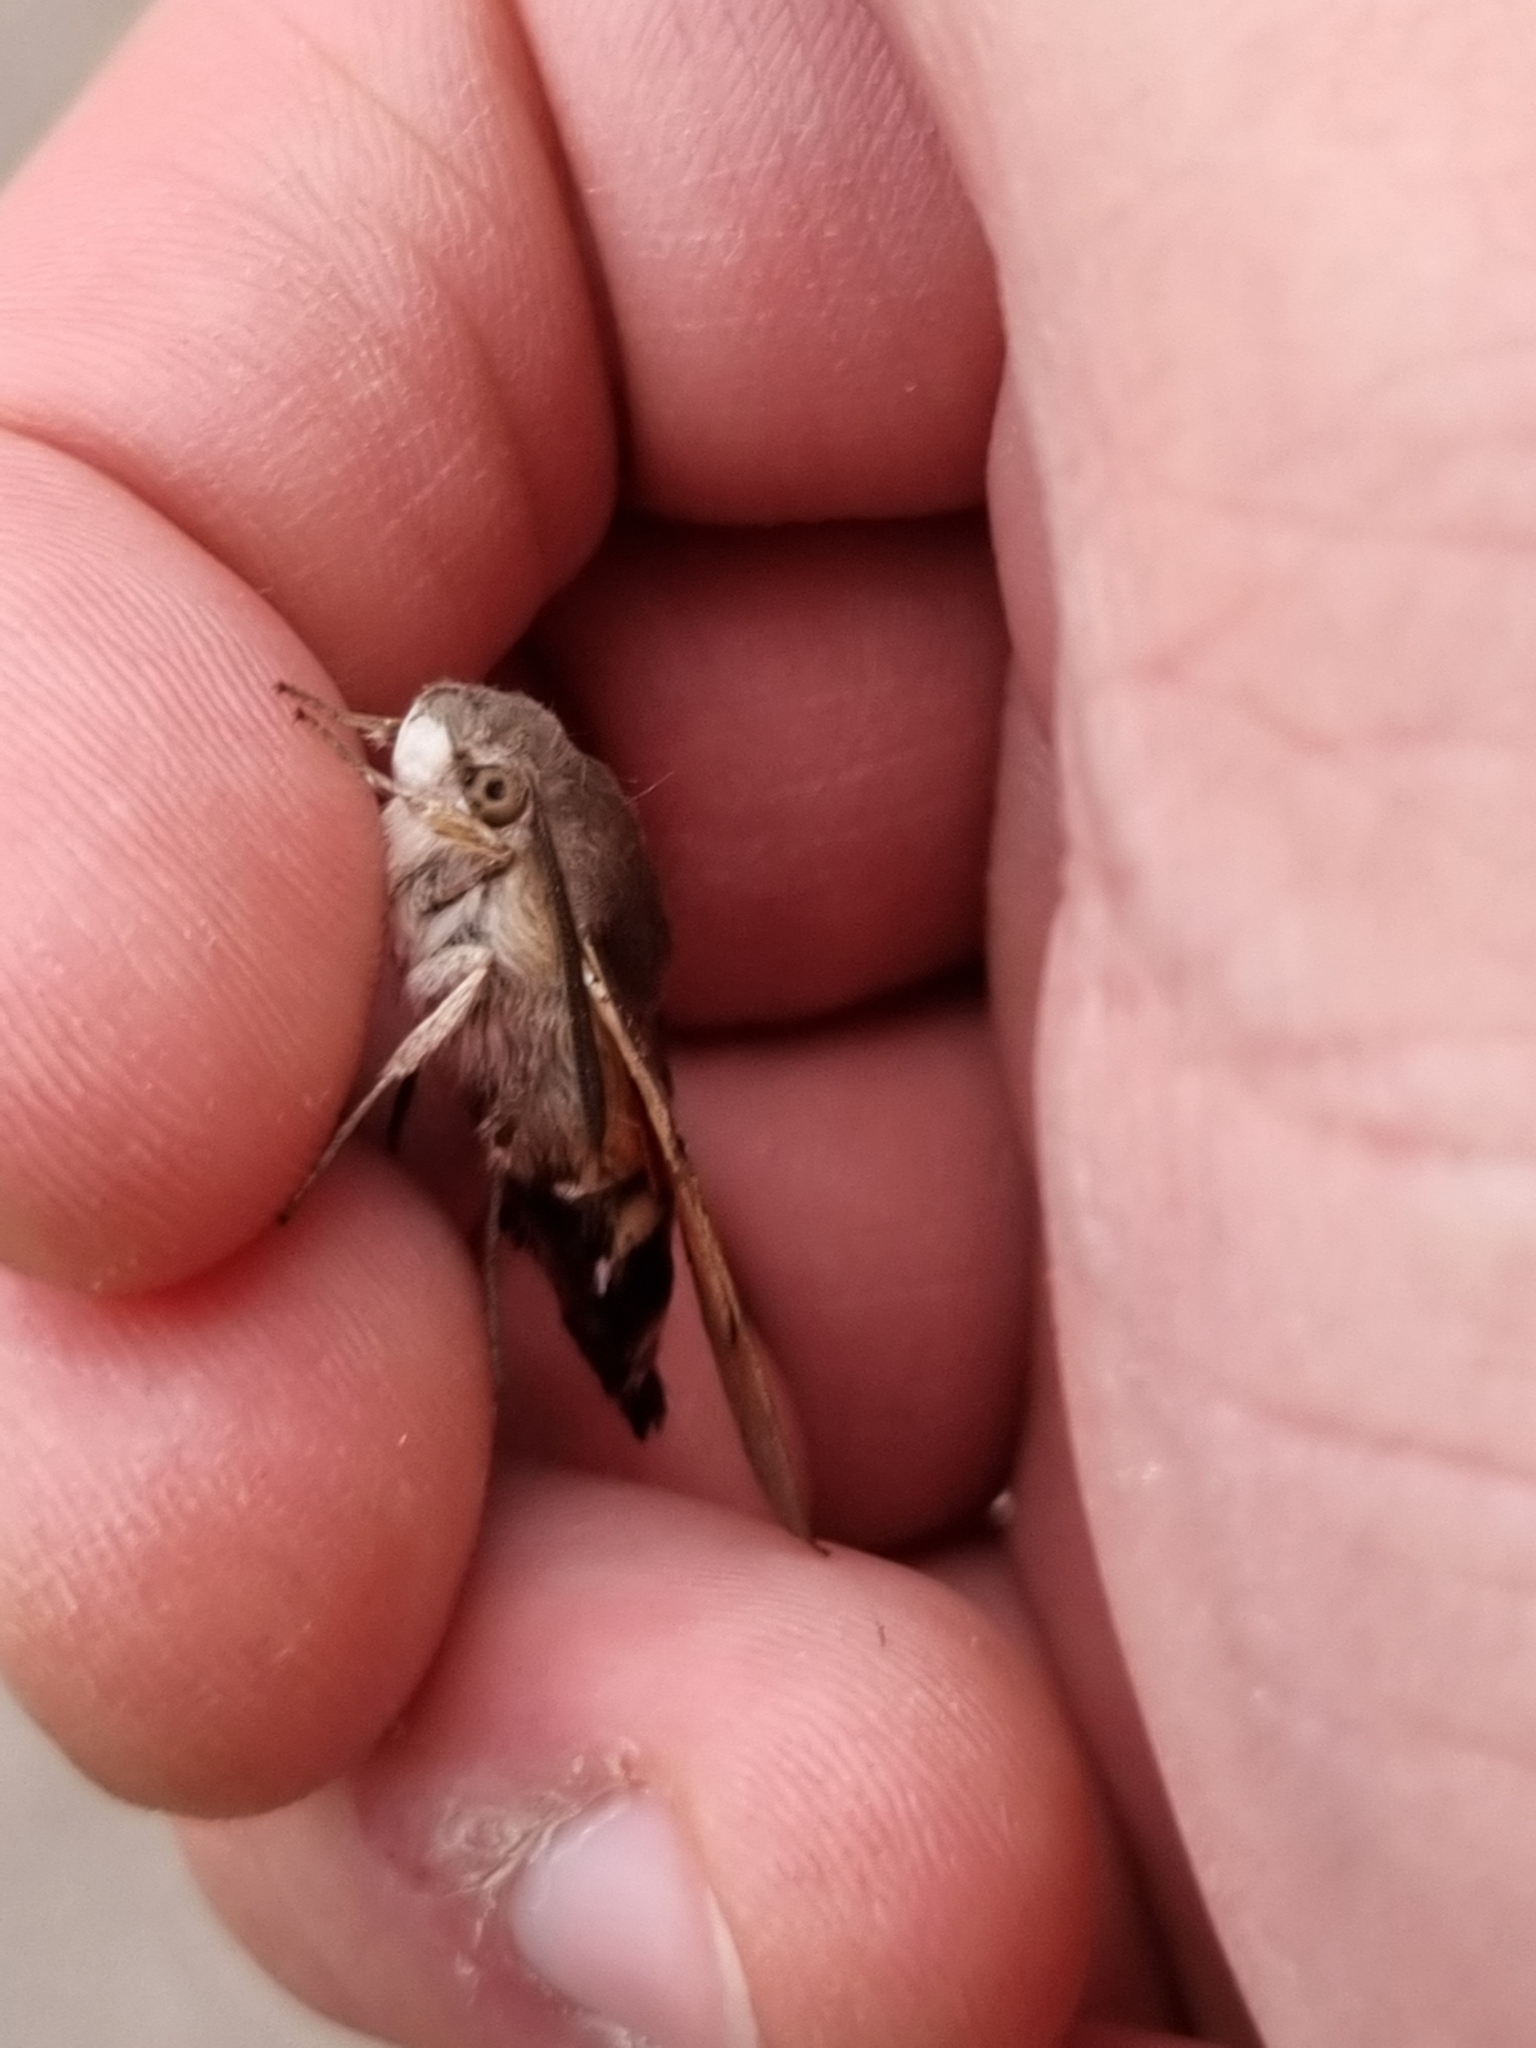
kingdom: Animalia
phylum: Arthropoda
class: Insecta
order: Lepidoptera
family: Sphingidae
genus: Macroglossum
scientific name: Macroglossum stellatarum
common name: Humming-bird hawk-moth
